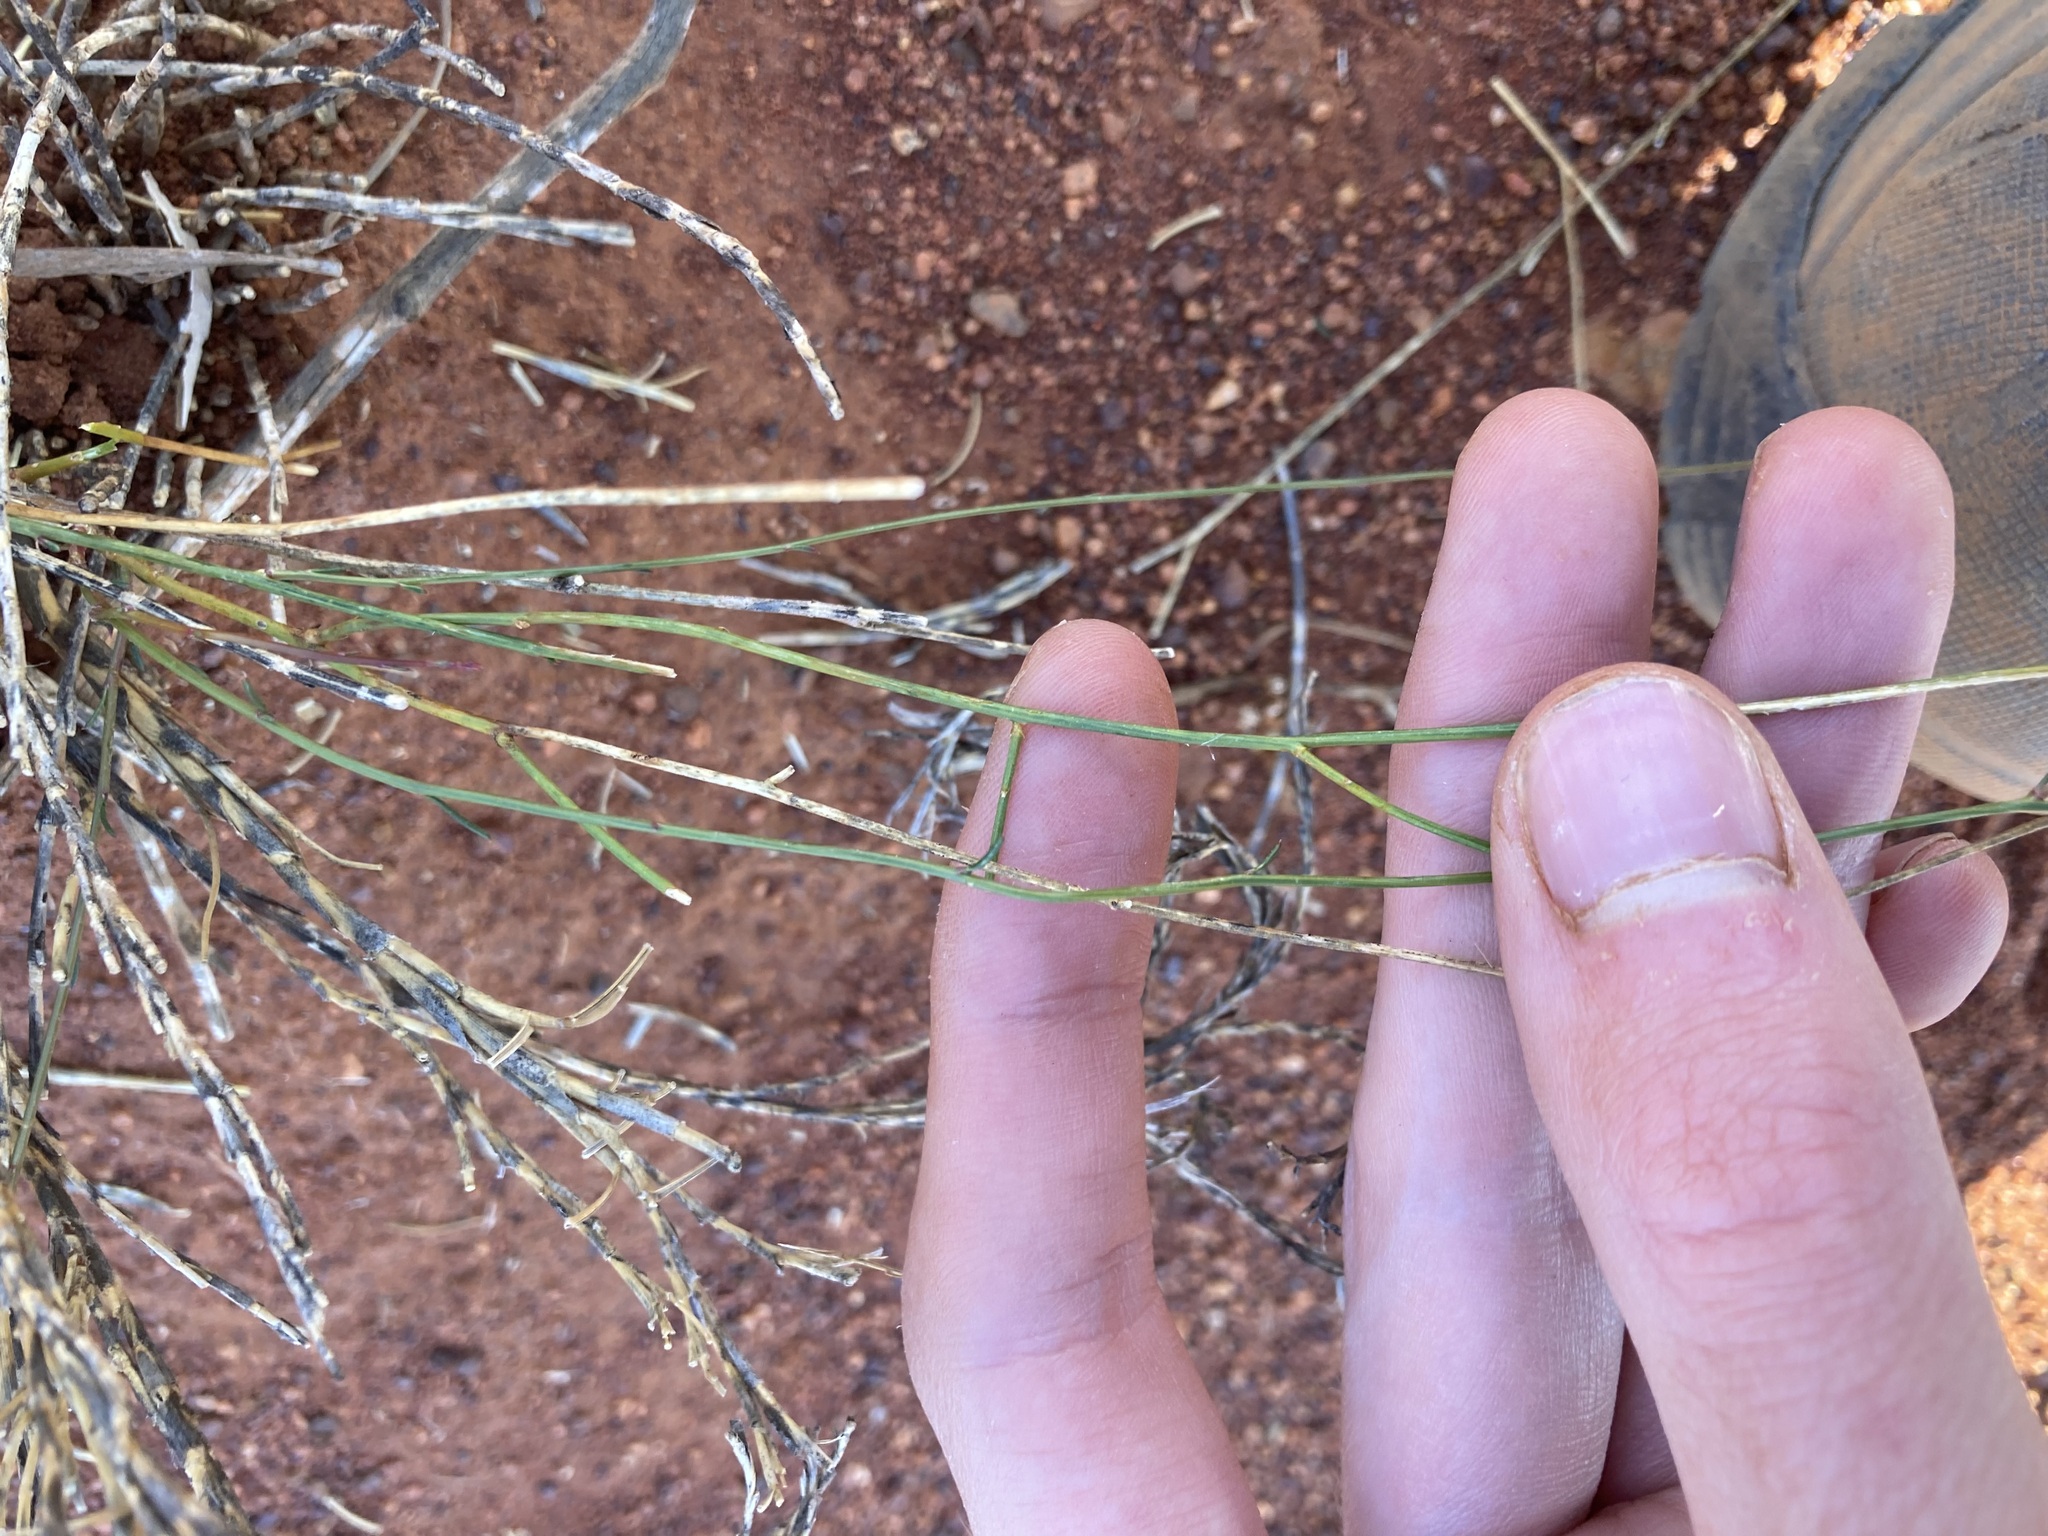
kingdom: Plantae
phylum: Tracheophyta
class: Magnoliopsida
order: Caryophyllales
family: Amaranthaceae
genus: Ptilotus
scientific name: Ptilotus schwartzii
